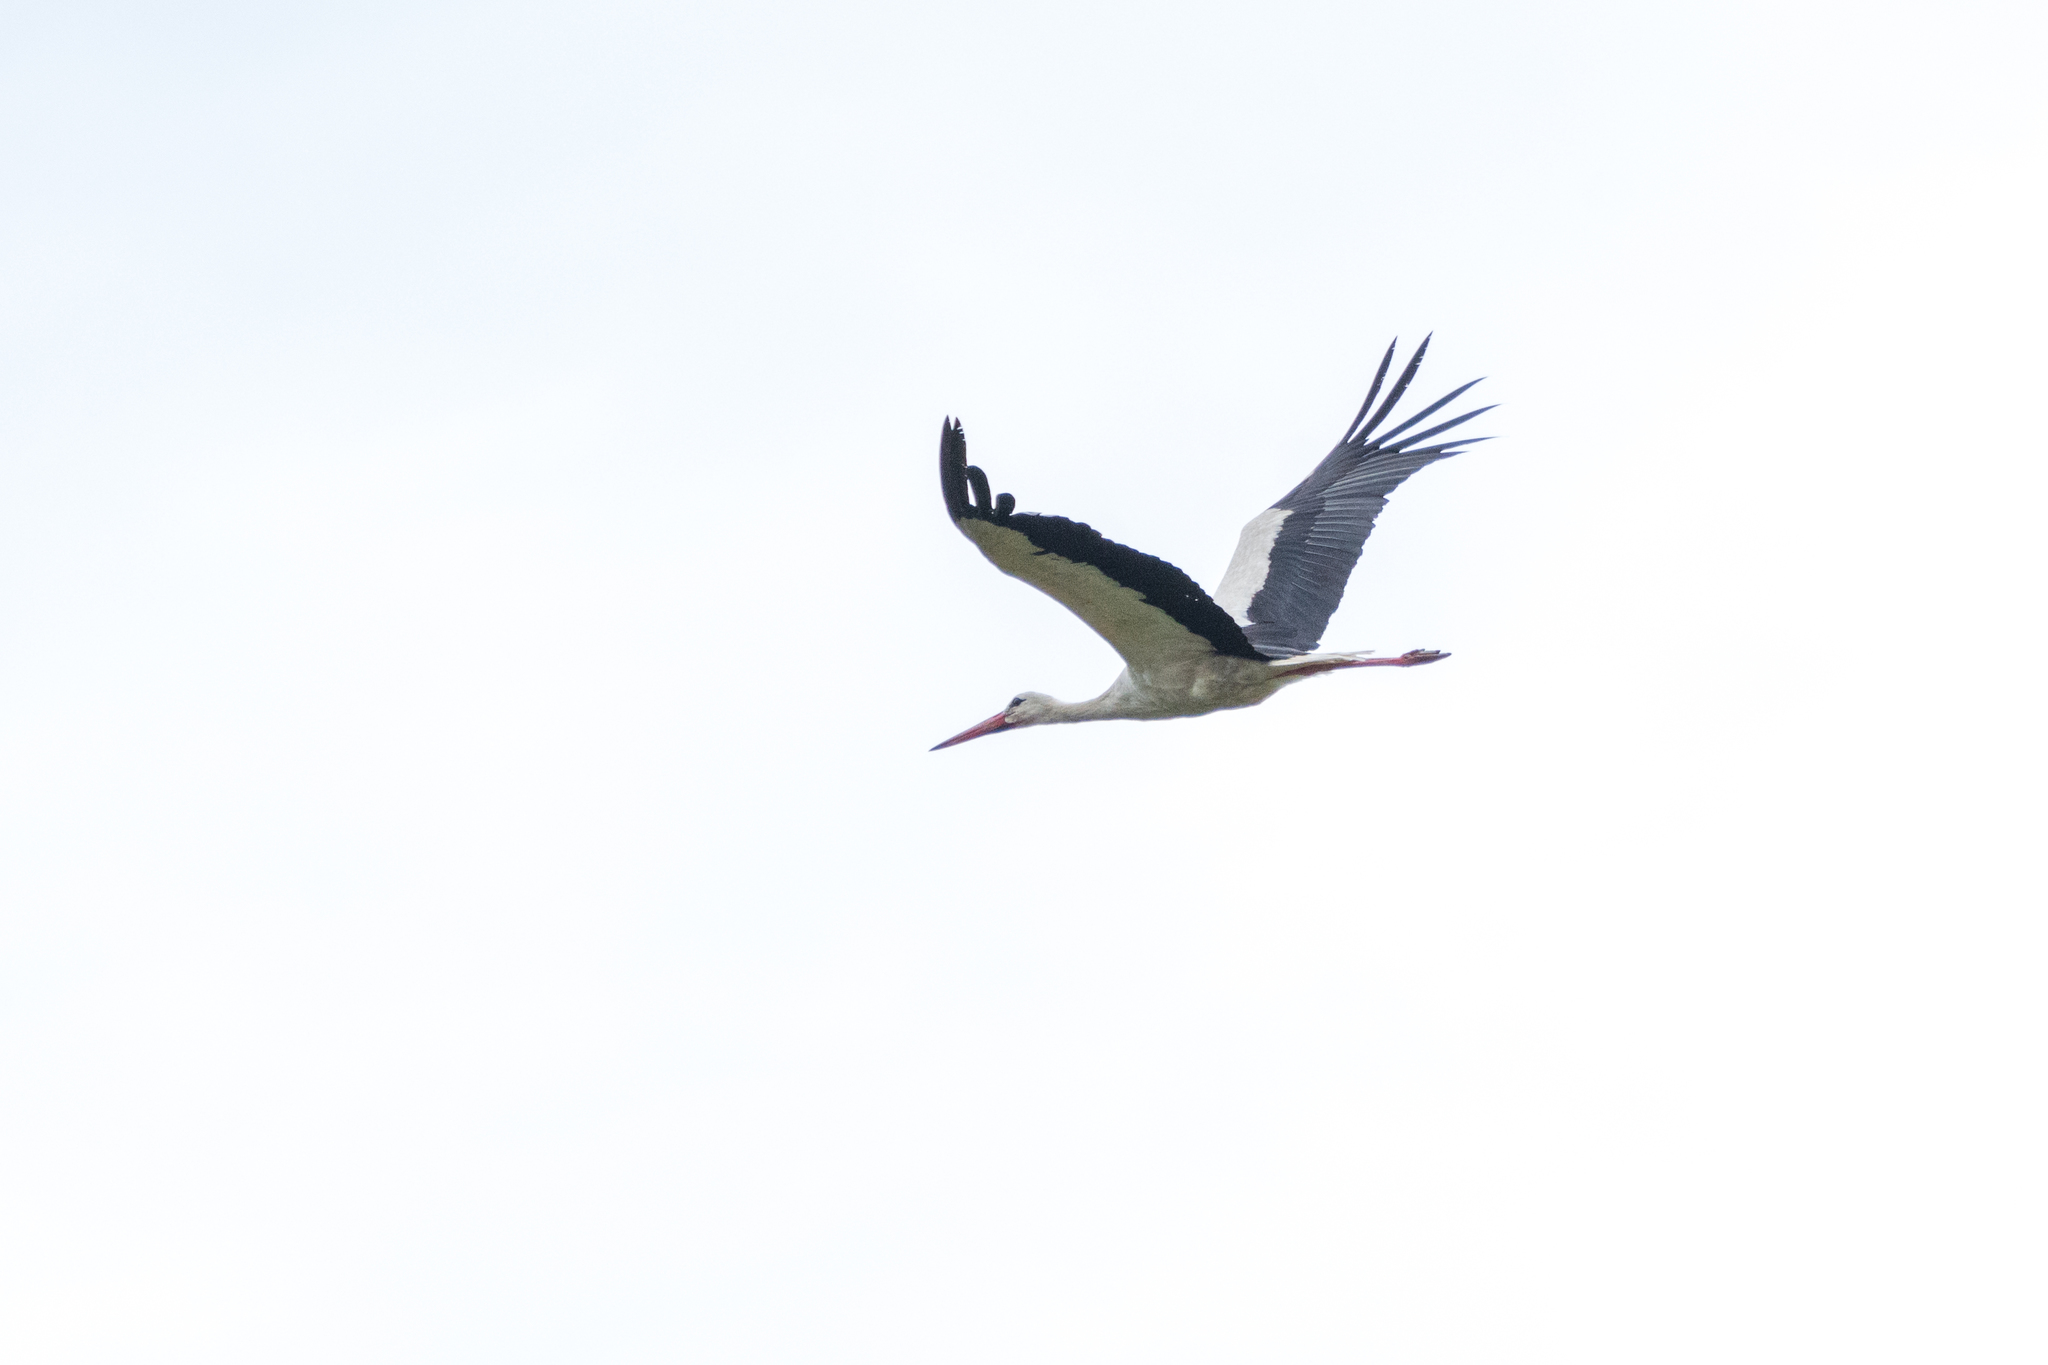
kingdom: Animalia
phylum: Chordata
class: Aves
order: Ciconiiformes
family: Ciconiidae
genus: Ciconia
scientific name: Ciconia ciconia
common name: White stork
